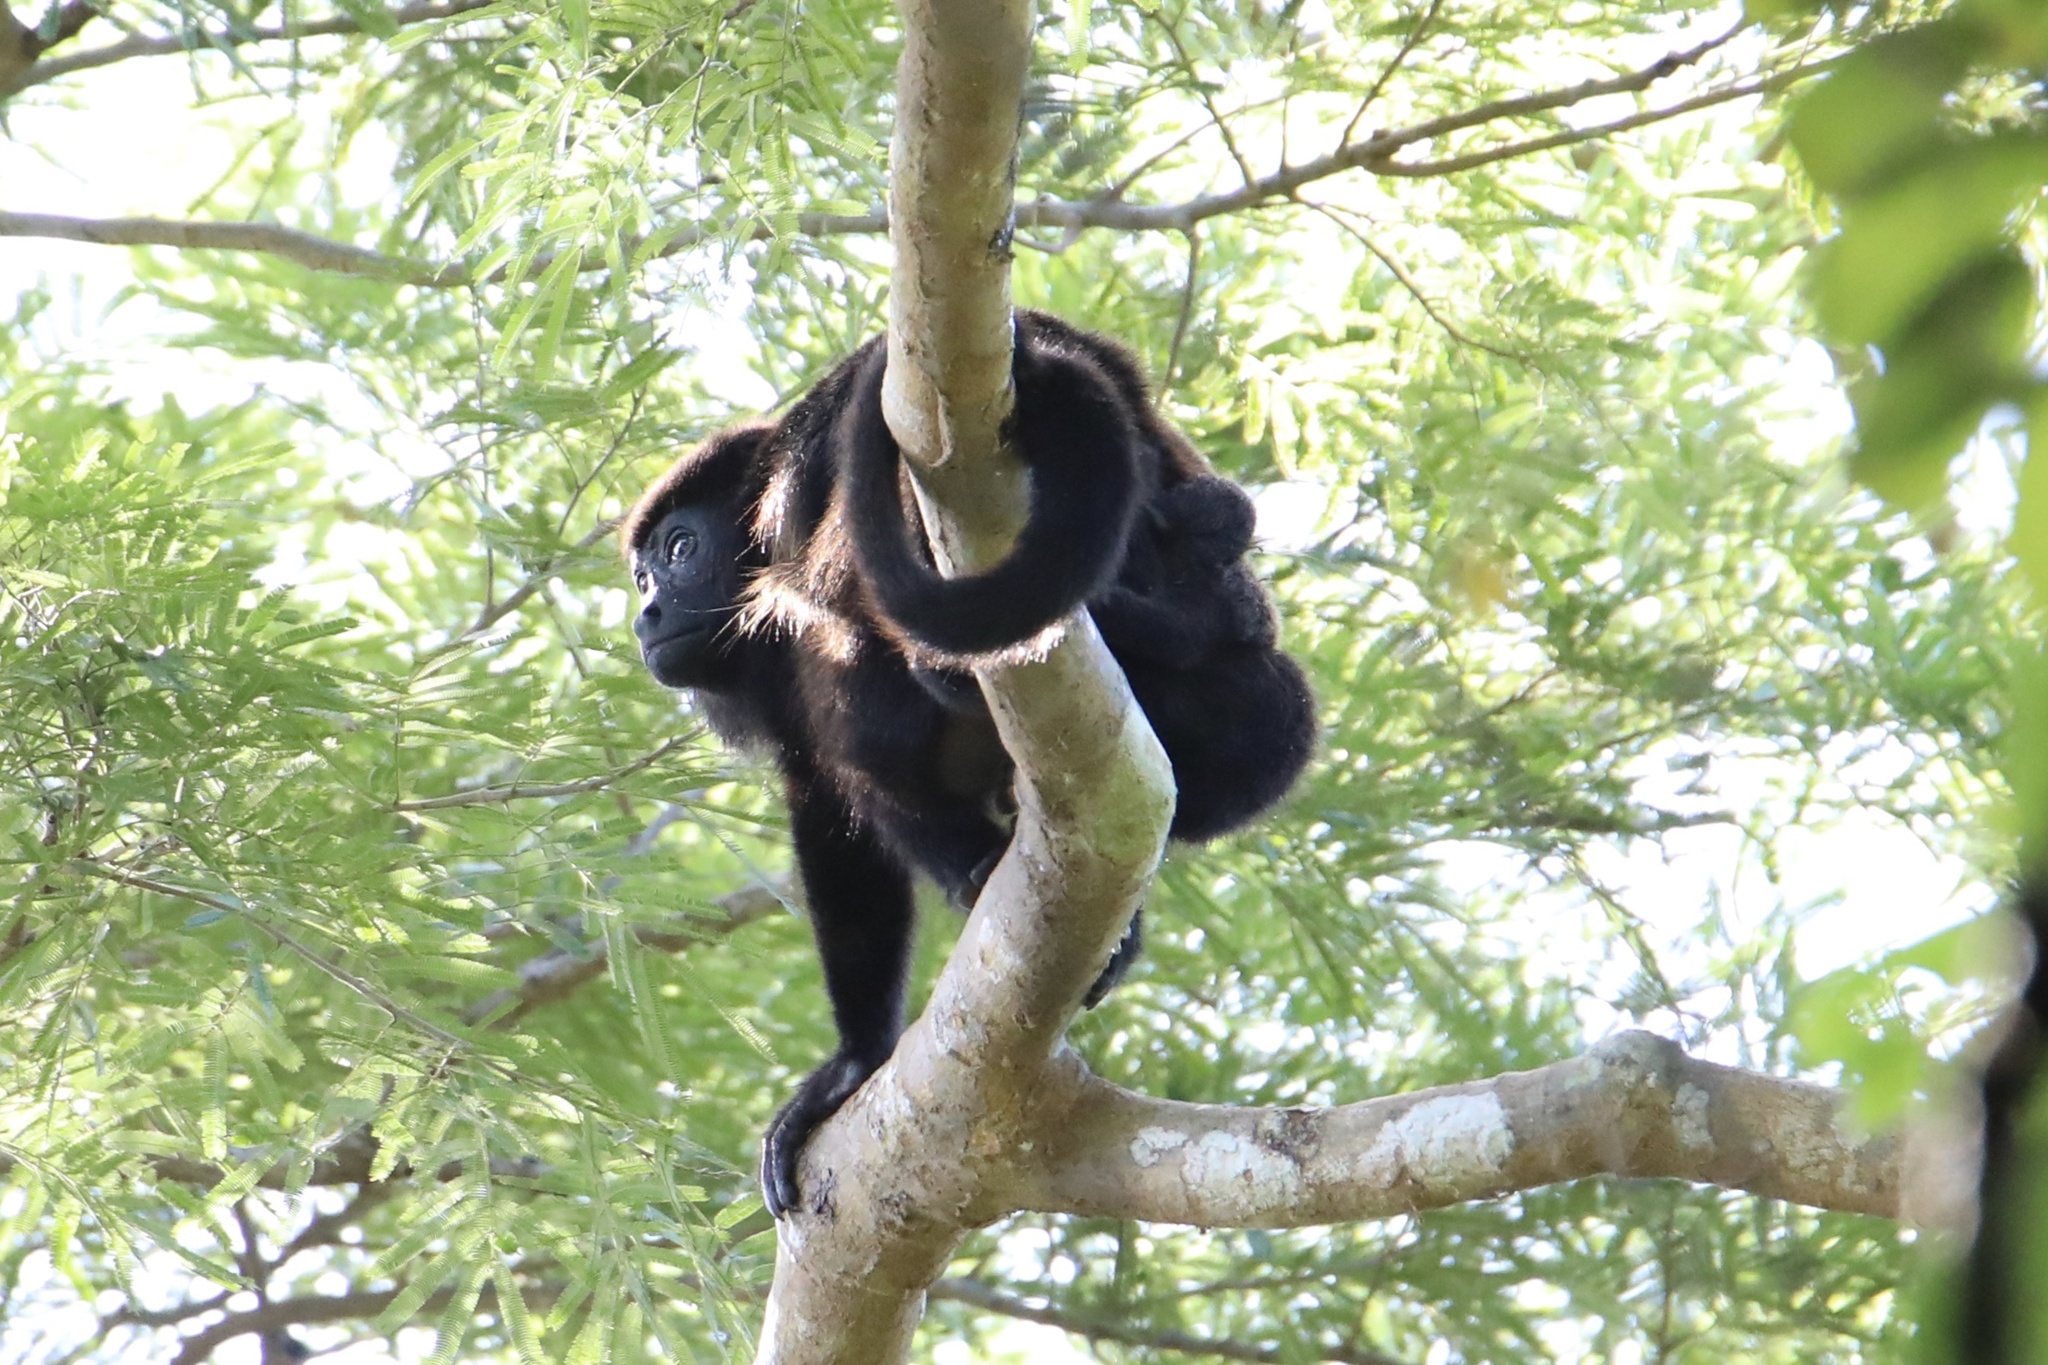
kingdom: Animalia
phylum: Chordata
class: Mammalia
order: Primates
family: Atelidae
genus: Alouatta
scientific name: Alouatta palliata
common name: Mantled howler
